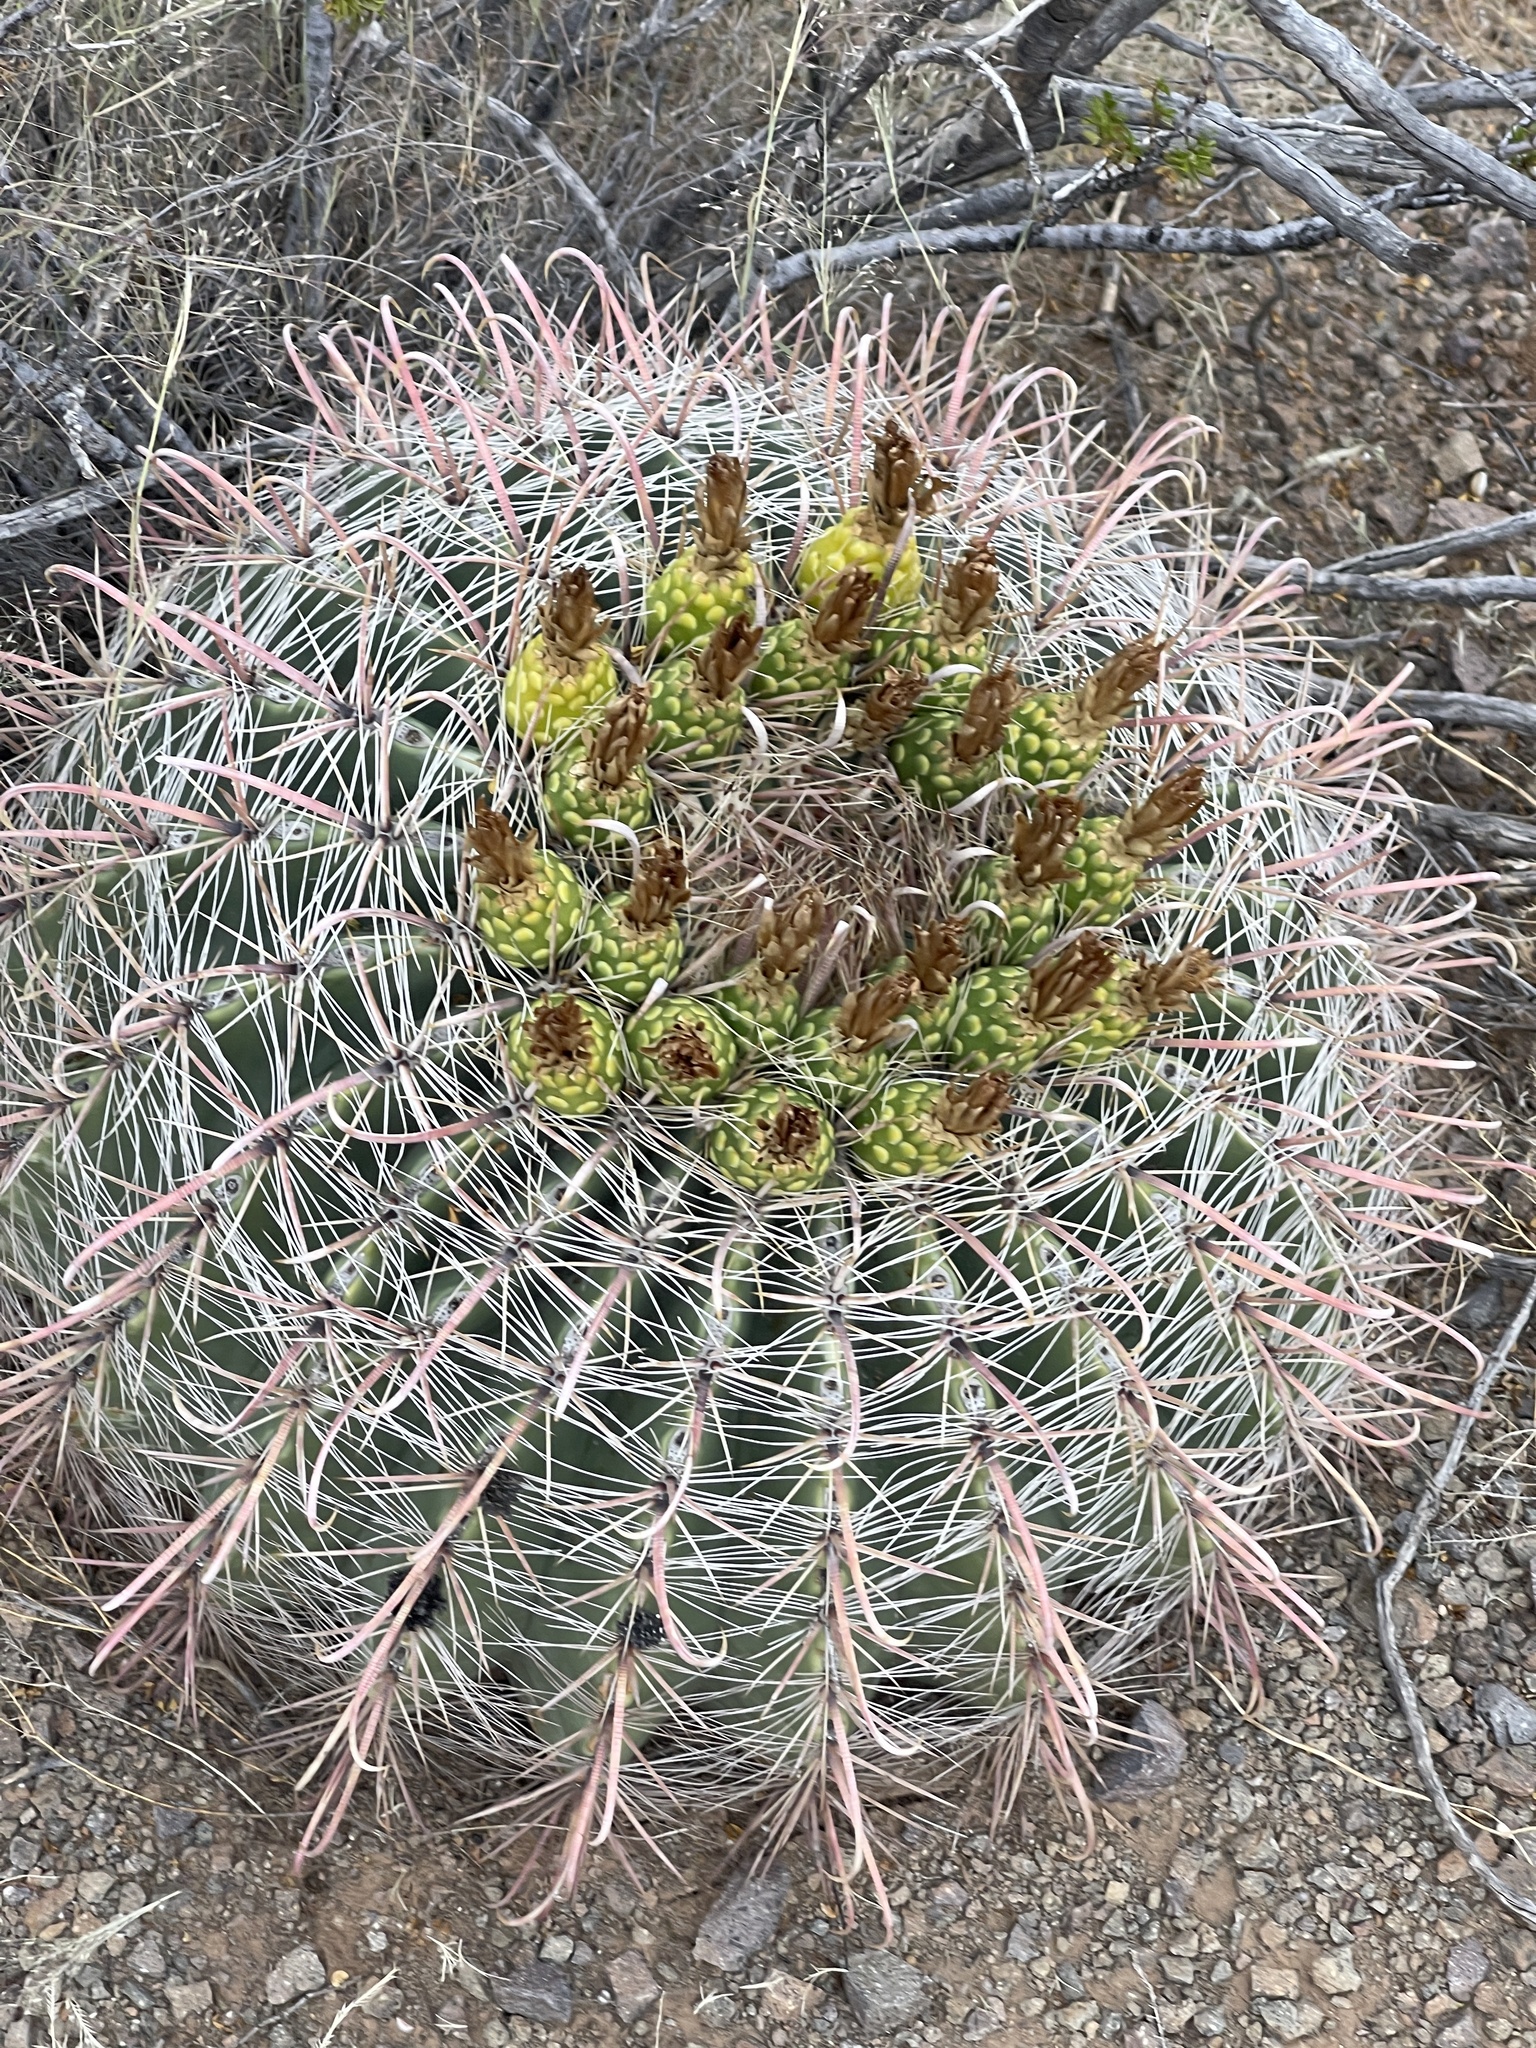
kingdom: Plantae
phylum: Tracheophyta
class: Magnoliopsida
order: Caryophyllales
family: Cactaceae
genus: Ferocactus
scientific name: Ferocactus wislizeni
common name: Candy barrel cactus
